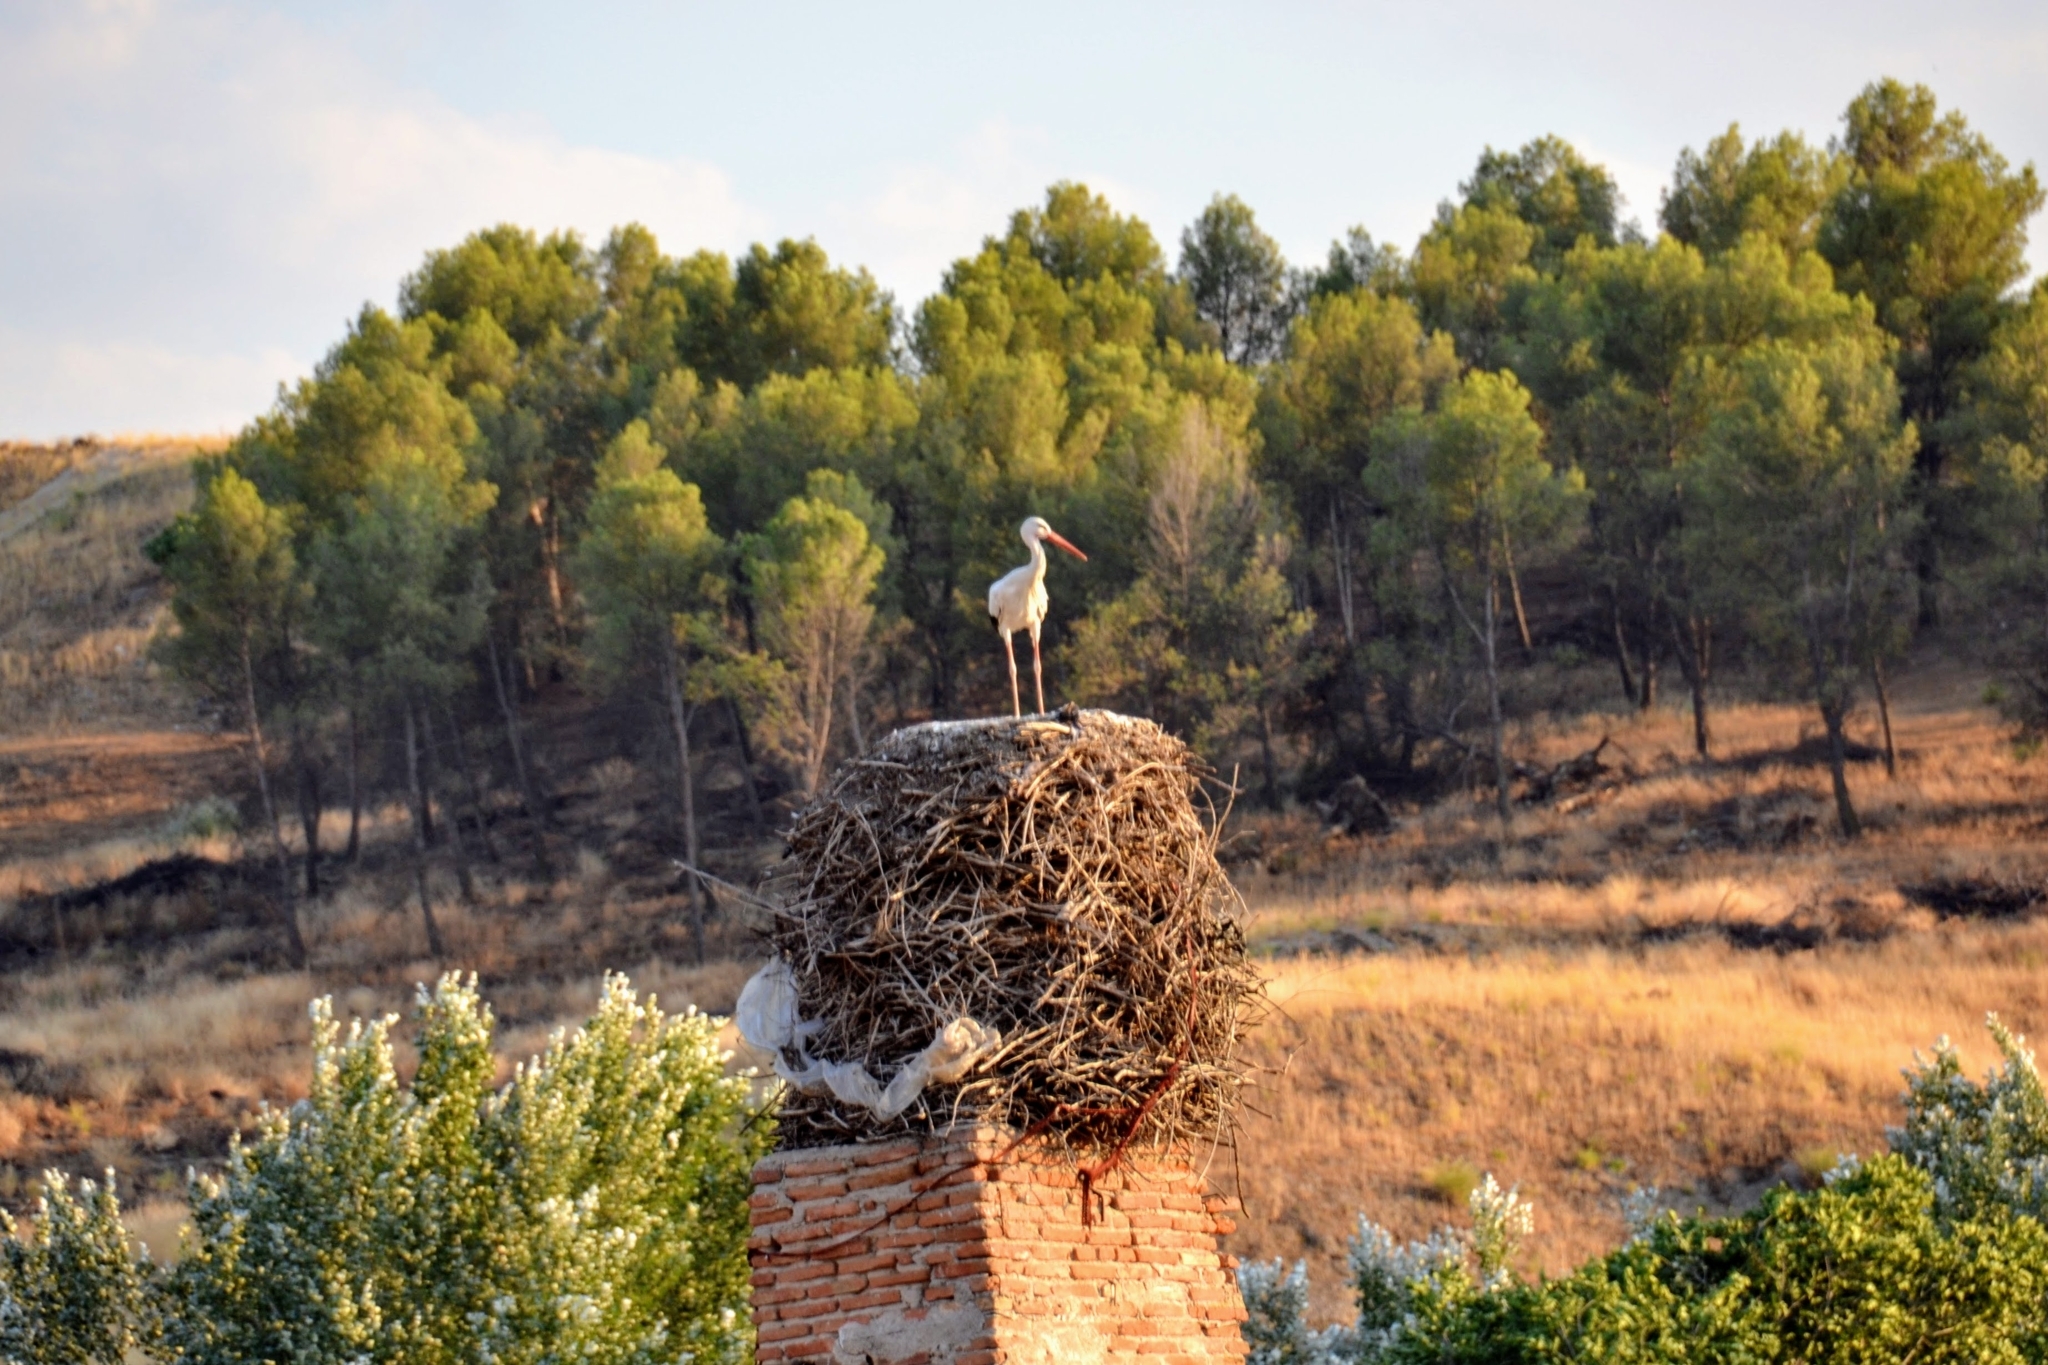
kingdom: Animalia
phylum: Chordata
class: Aves
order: Ciconiiformes
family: Ciconiidae
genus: Ciconia
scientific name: Ciconia ciconia
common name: White stork
